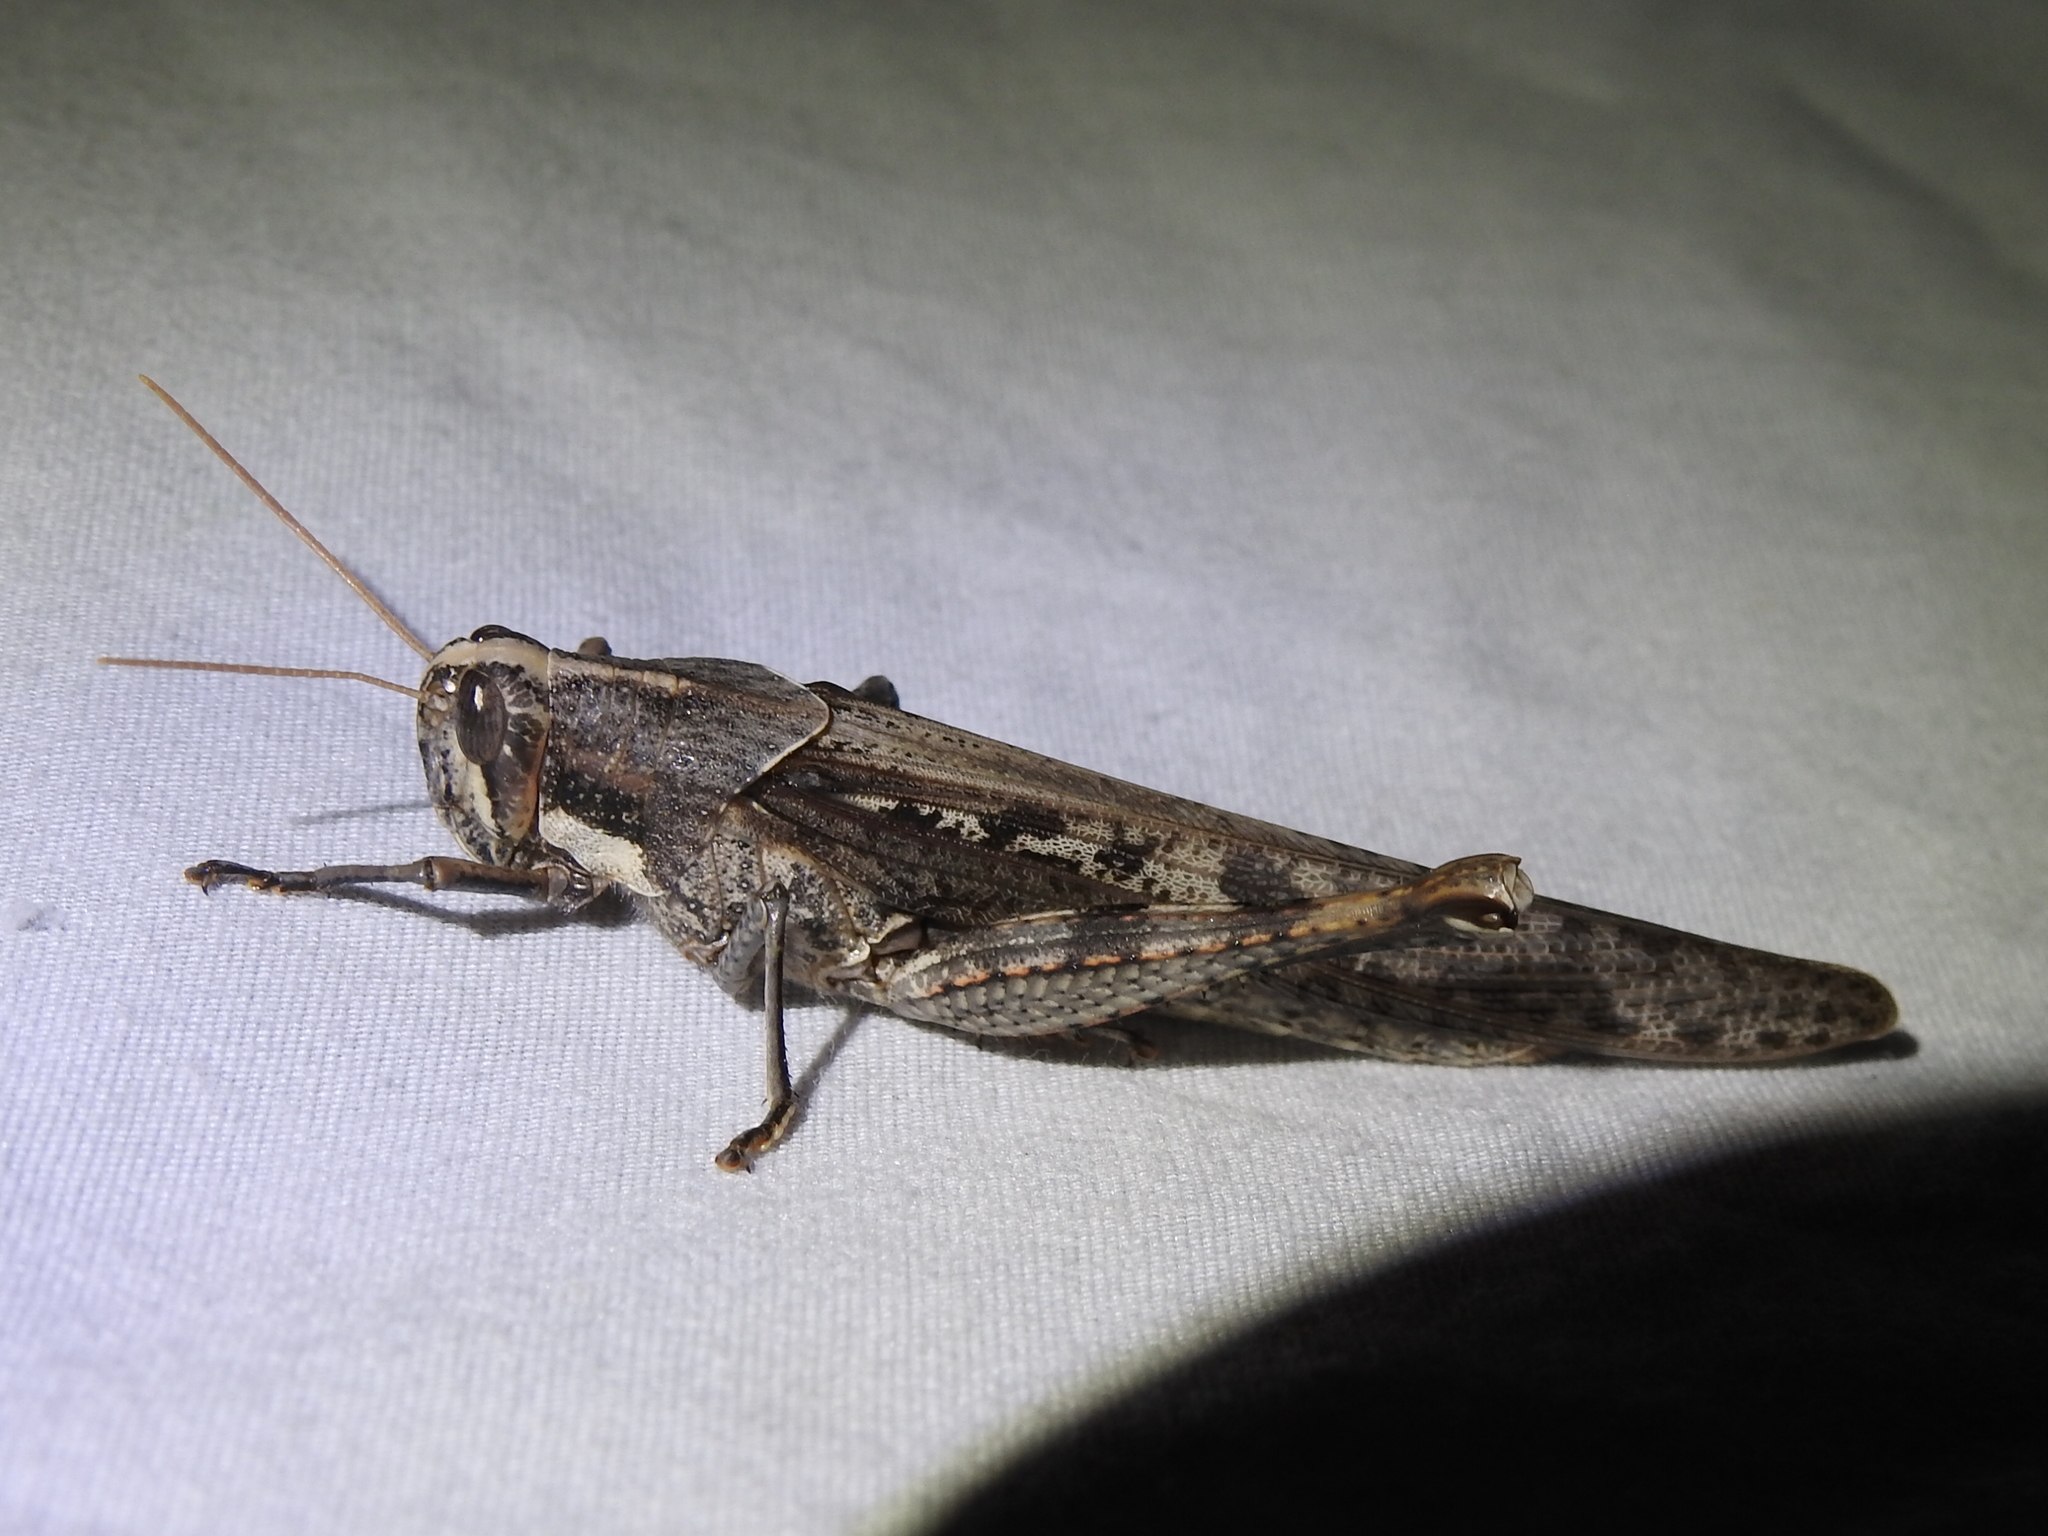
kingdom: Animalia
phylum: Arthropoda
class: Insecta
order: Orthoptera
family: Acrididae
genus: Schistocerca
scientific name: Schistocerca nitens
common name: Vagrant grasshopper
